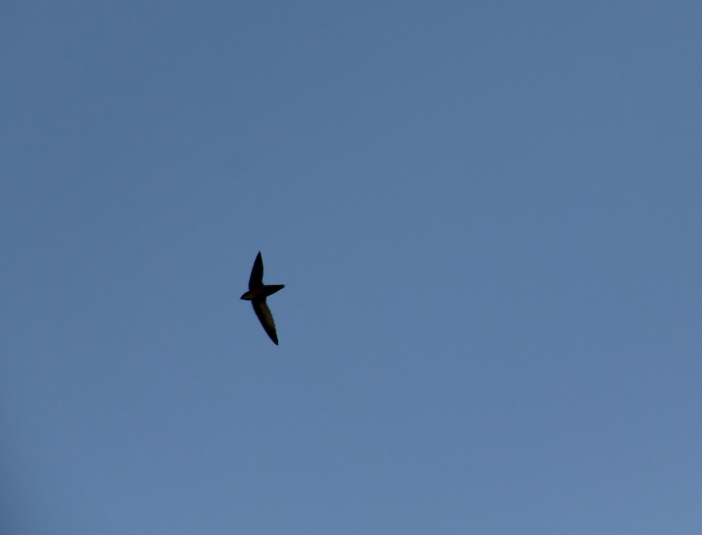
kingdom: Animalia
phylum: Chordata
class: Aves
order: Apodiformes
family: Apodidae
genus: Chaetura
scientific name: Chaetura pelagica
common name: Chimney swift
